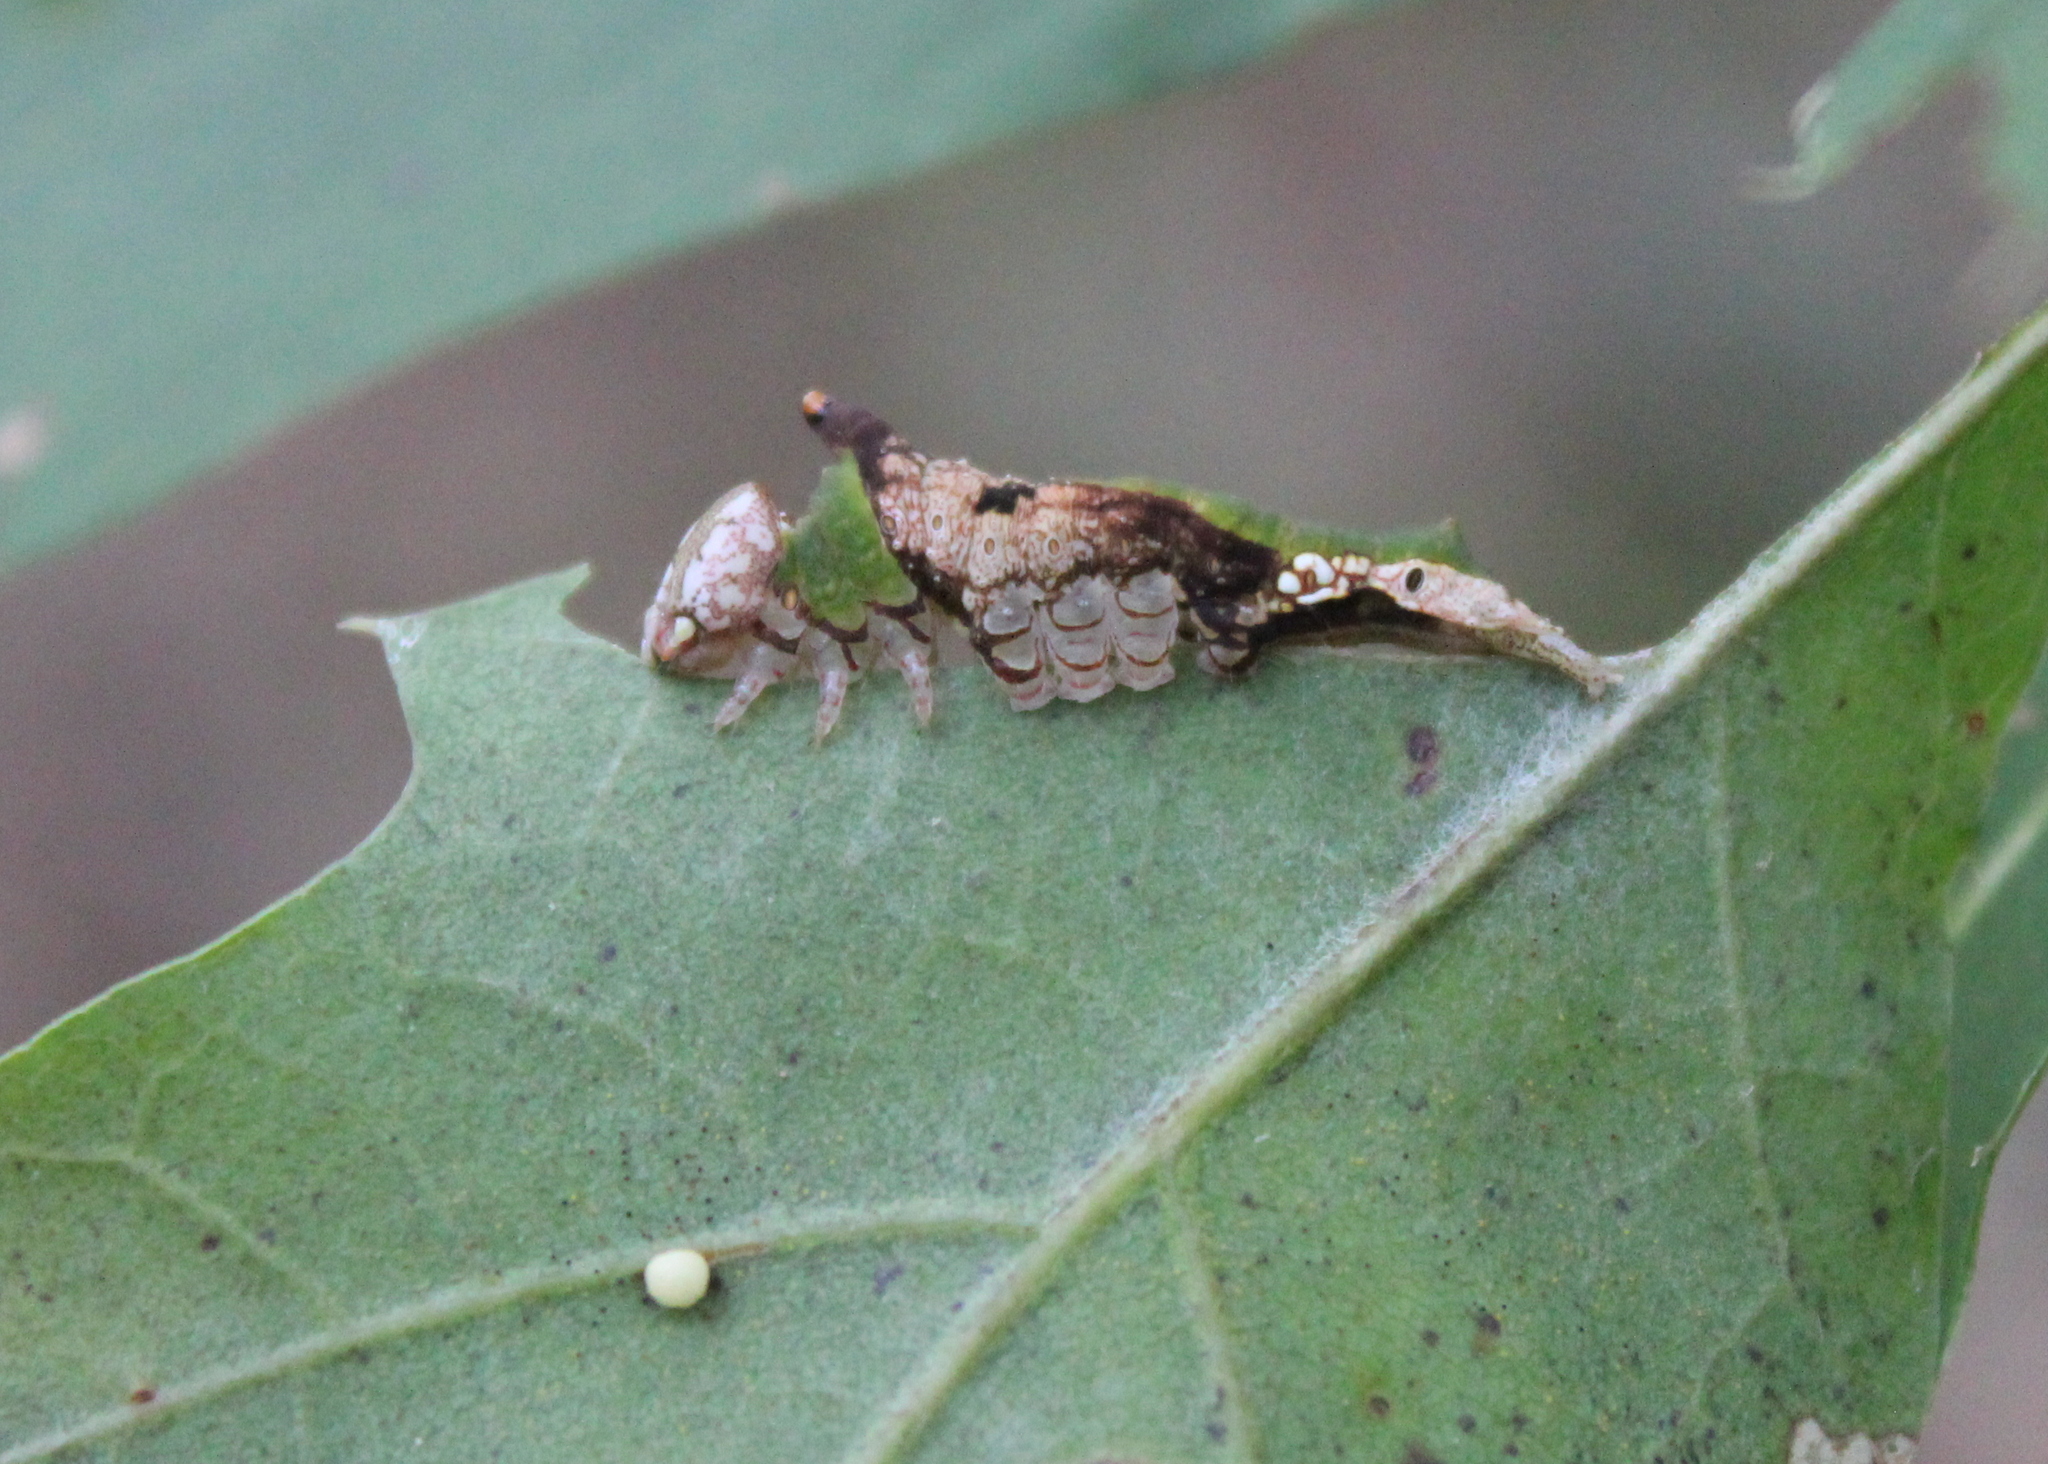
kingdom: Animalia
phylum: Arthropoda
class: Insecta
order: Lepidoptera
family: Notodontidae
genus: Oligocentria
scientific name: Oligocentria Ianassa lignicolor
